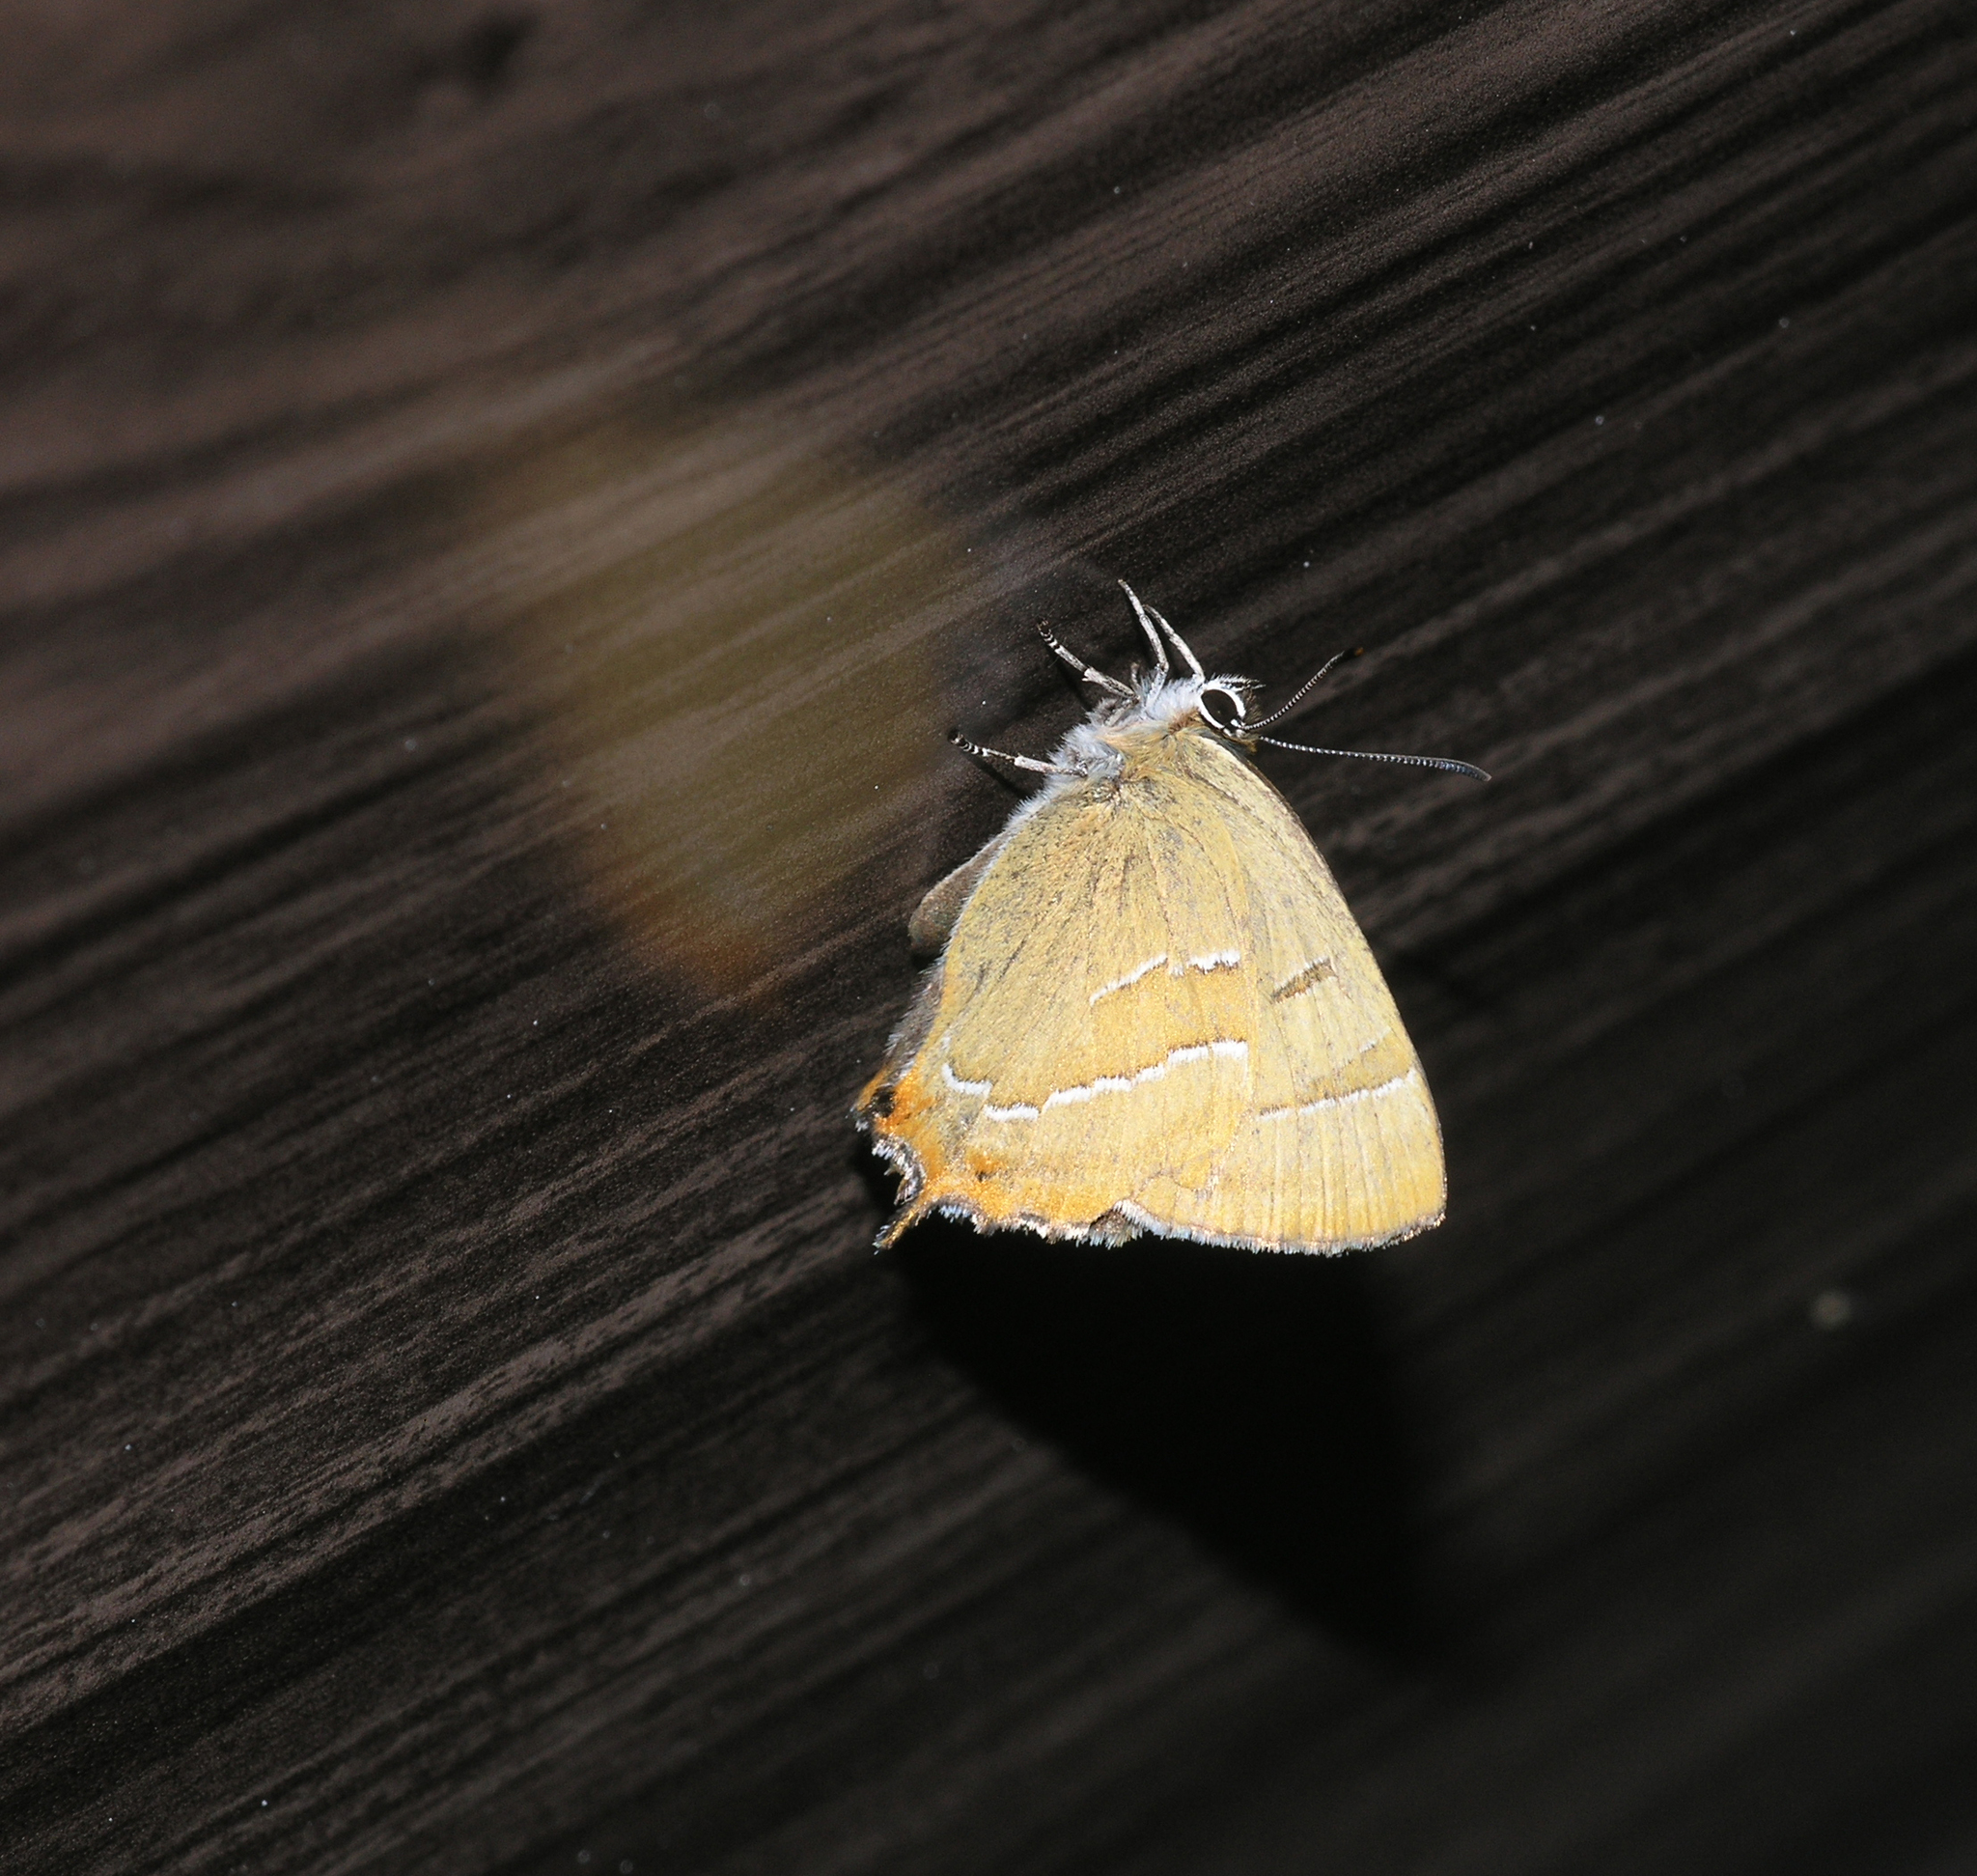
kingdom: Animalia
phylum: Arthropoda
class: Insecta
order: Lepidoptera
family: Lycaenidae
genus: Thecla
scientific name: Thecla betulae
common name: Brown hairstreak
